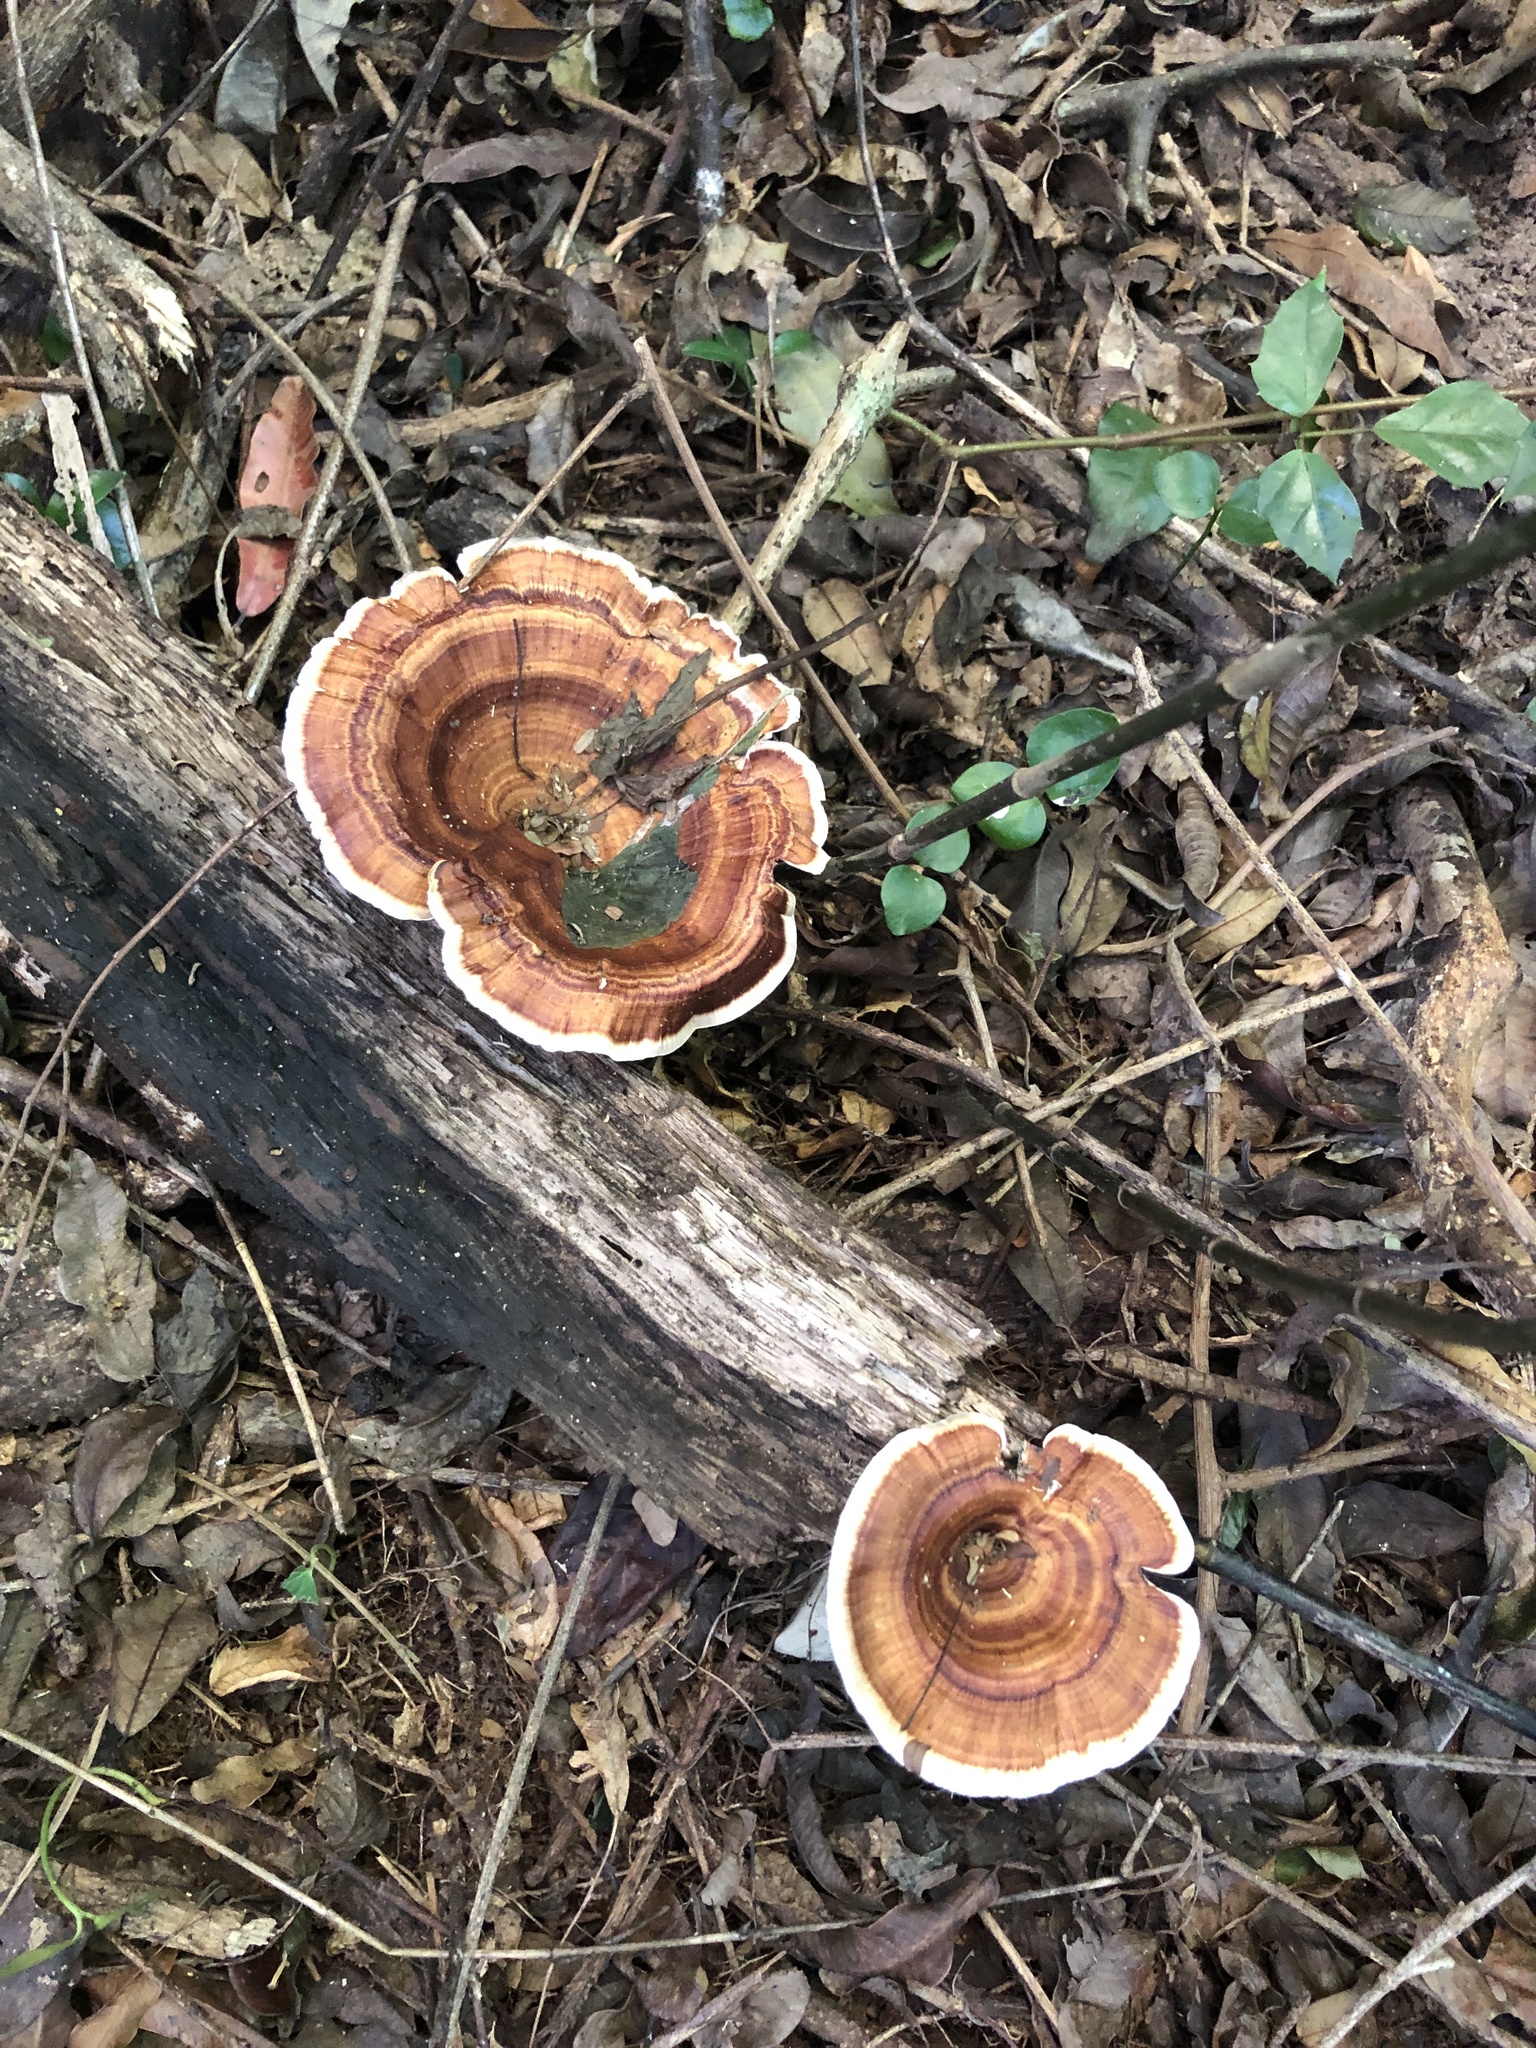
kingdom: Fungi
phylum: Basidiomycota
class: Agaricomycetes
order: Polyporales
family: Polyporaceae
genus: Microporus
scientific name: Microporus xanthopus
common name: Yellow-stemmed micropore
